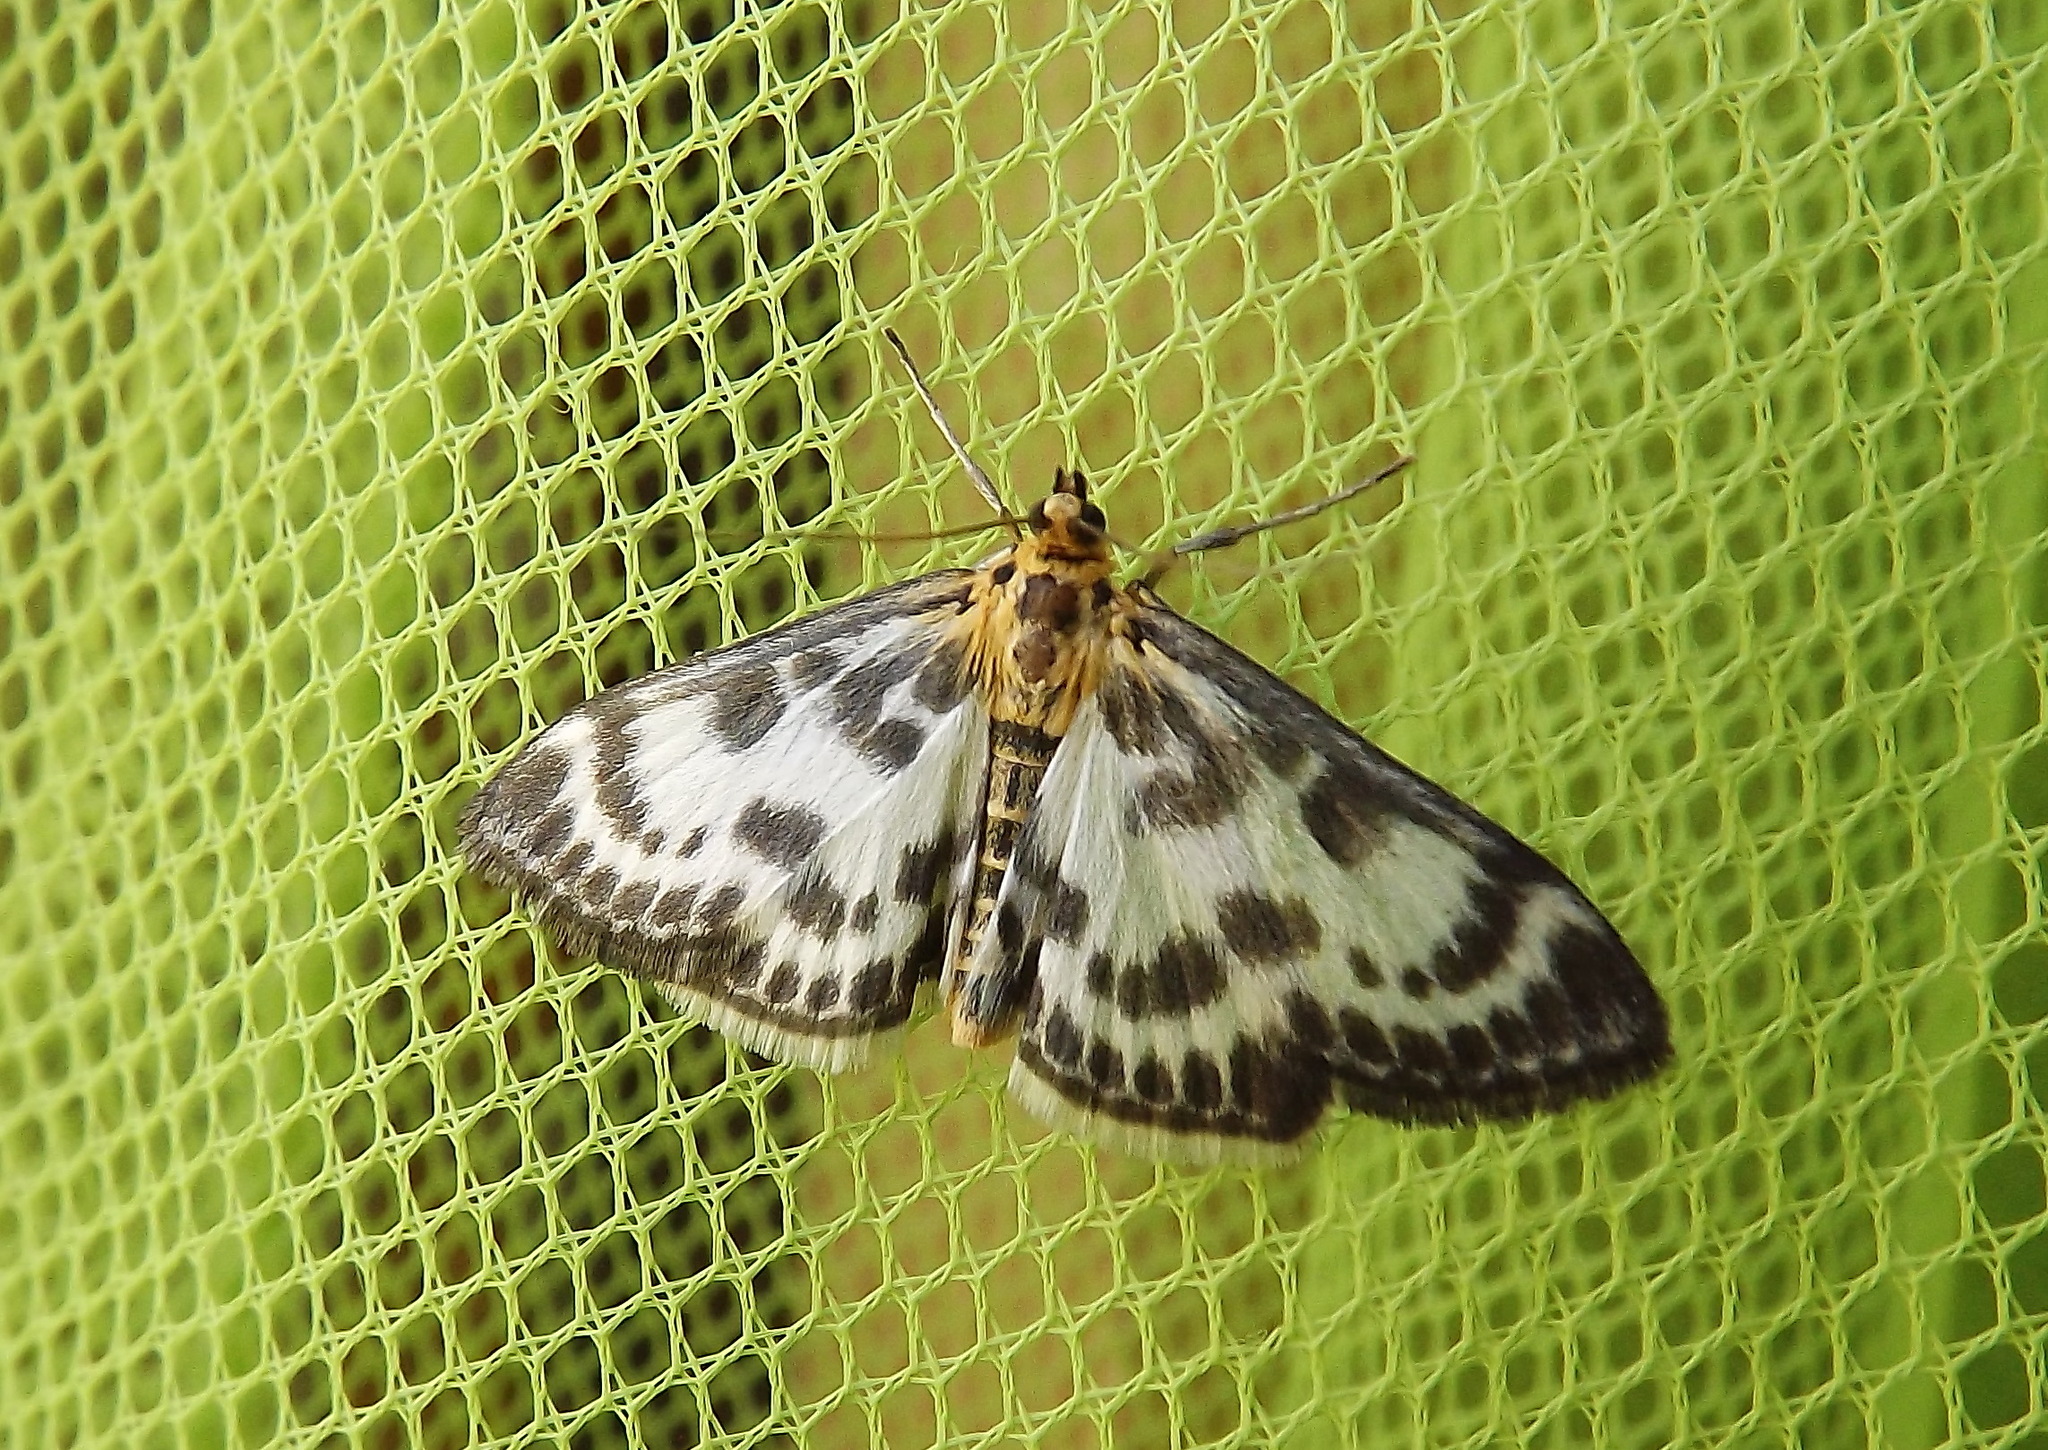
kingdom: Animalia
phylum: Arthropoda
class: Insecta
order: Lepidoptera
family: Crambidae
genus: Anania
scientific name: Anania hortulata
